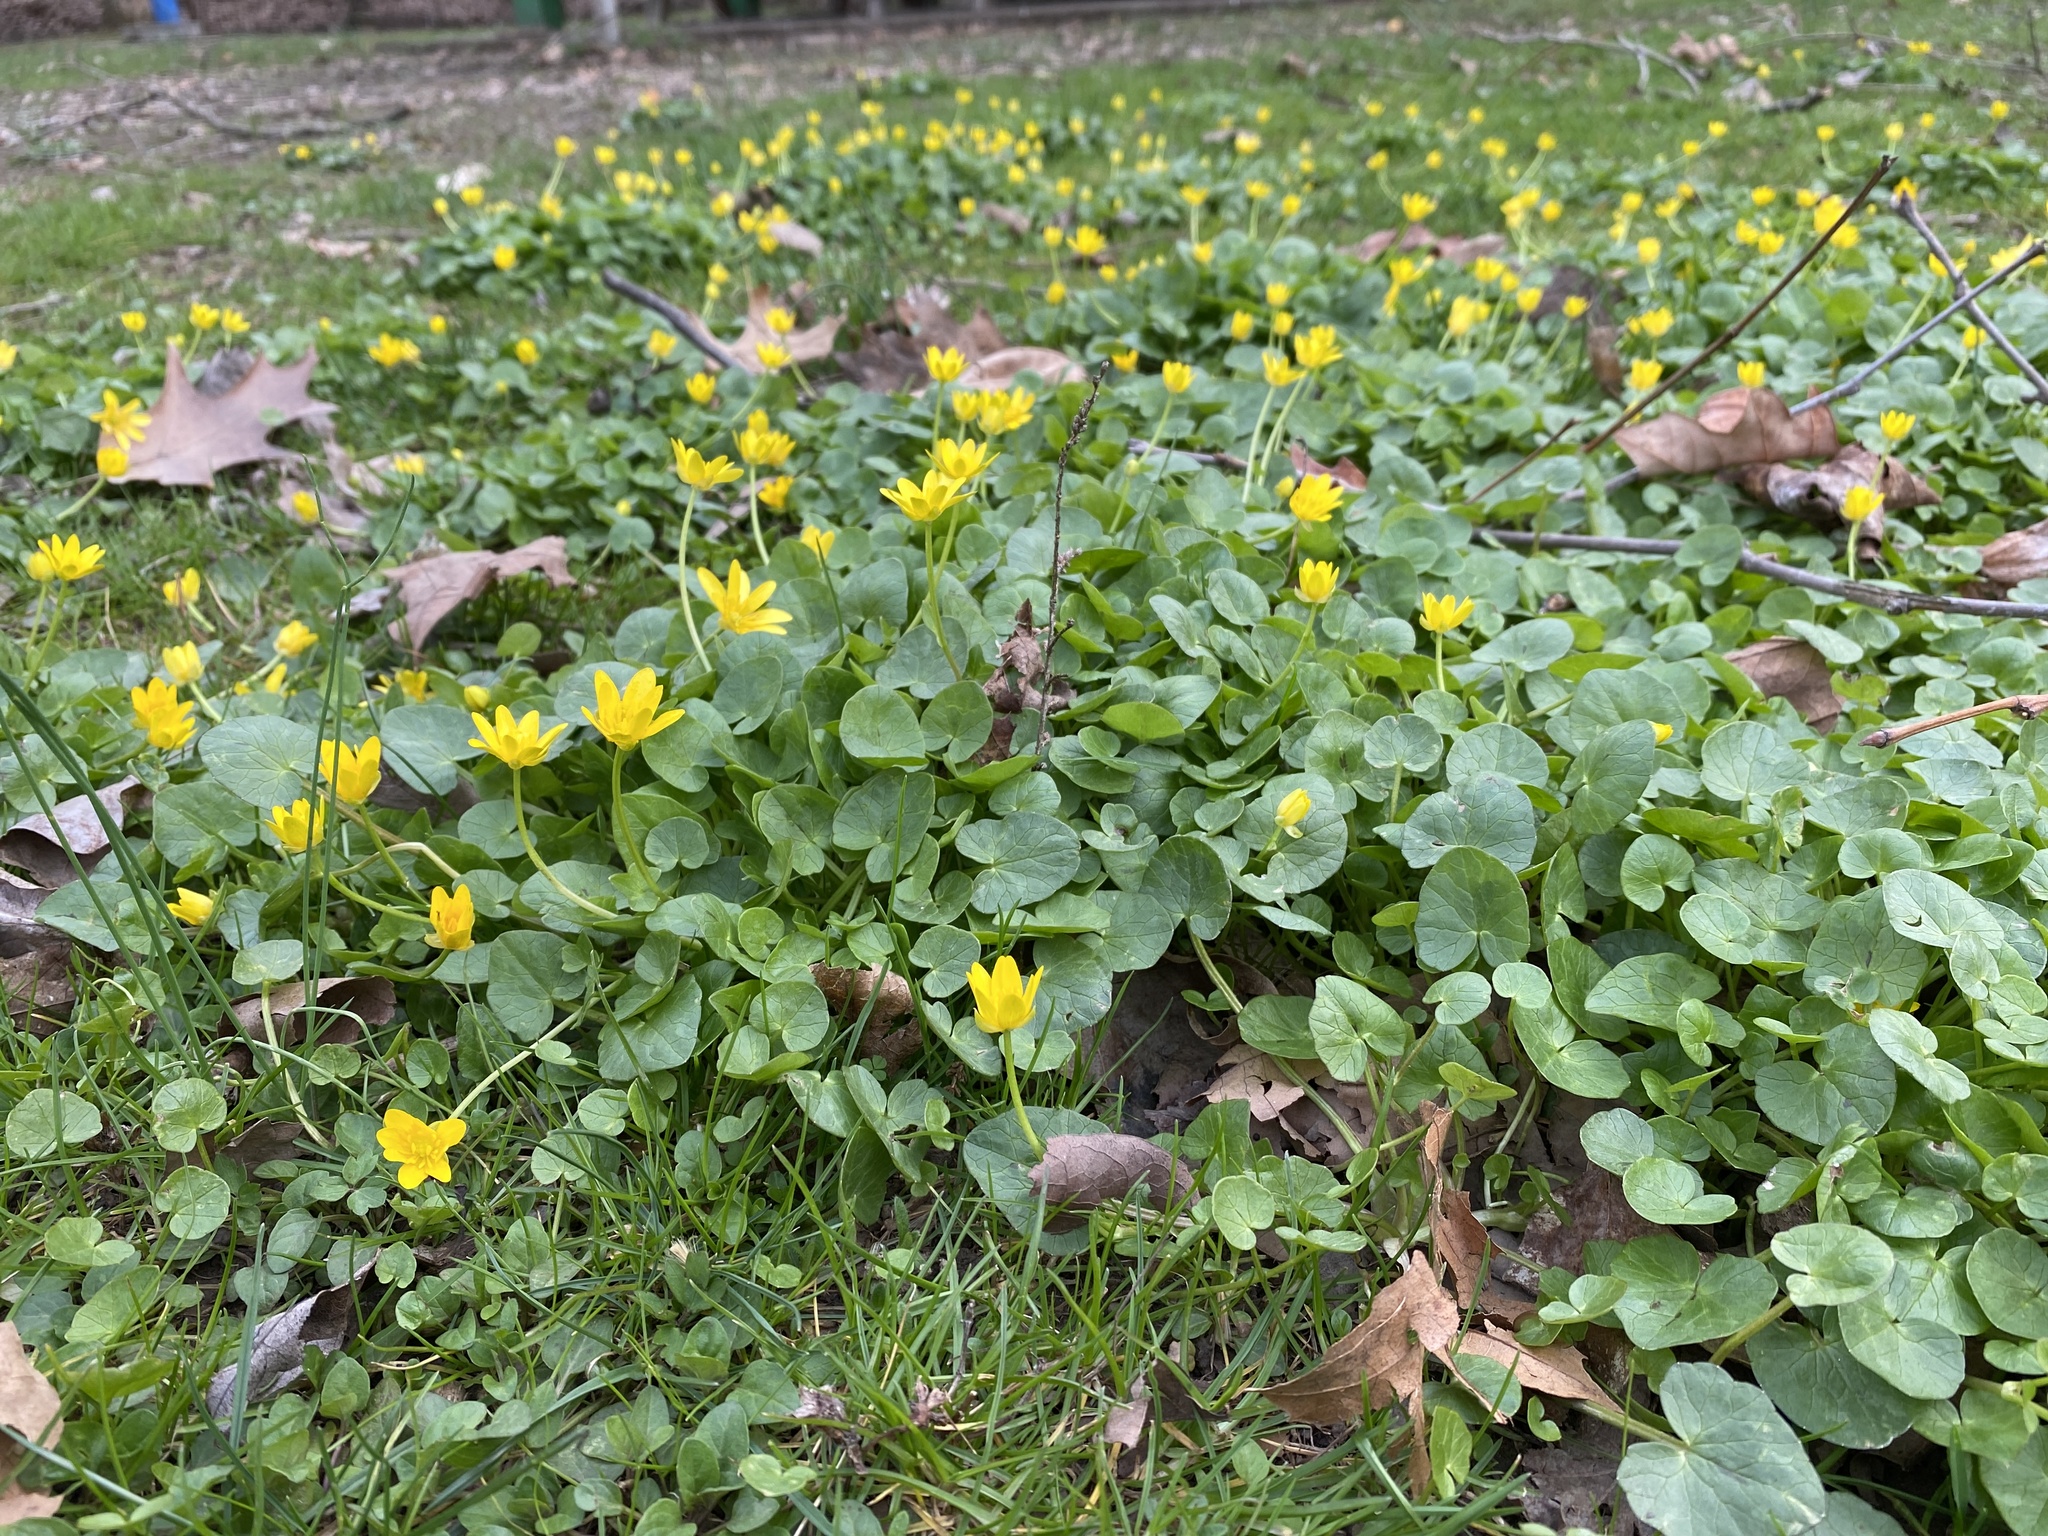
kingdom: Plantae
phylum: Tracheophyta
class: Magnoliopsida
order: Ranunculales
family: Ranunculaceae
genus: Ficaria
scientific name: Ficaria verna
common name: Lesser celandine
